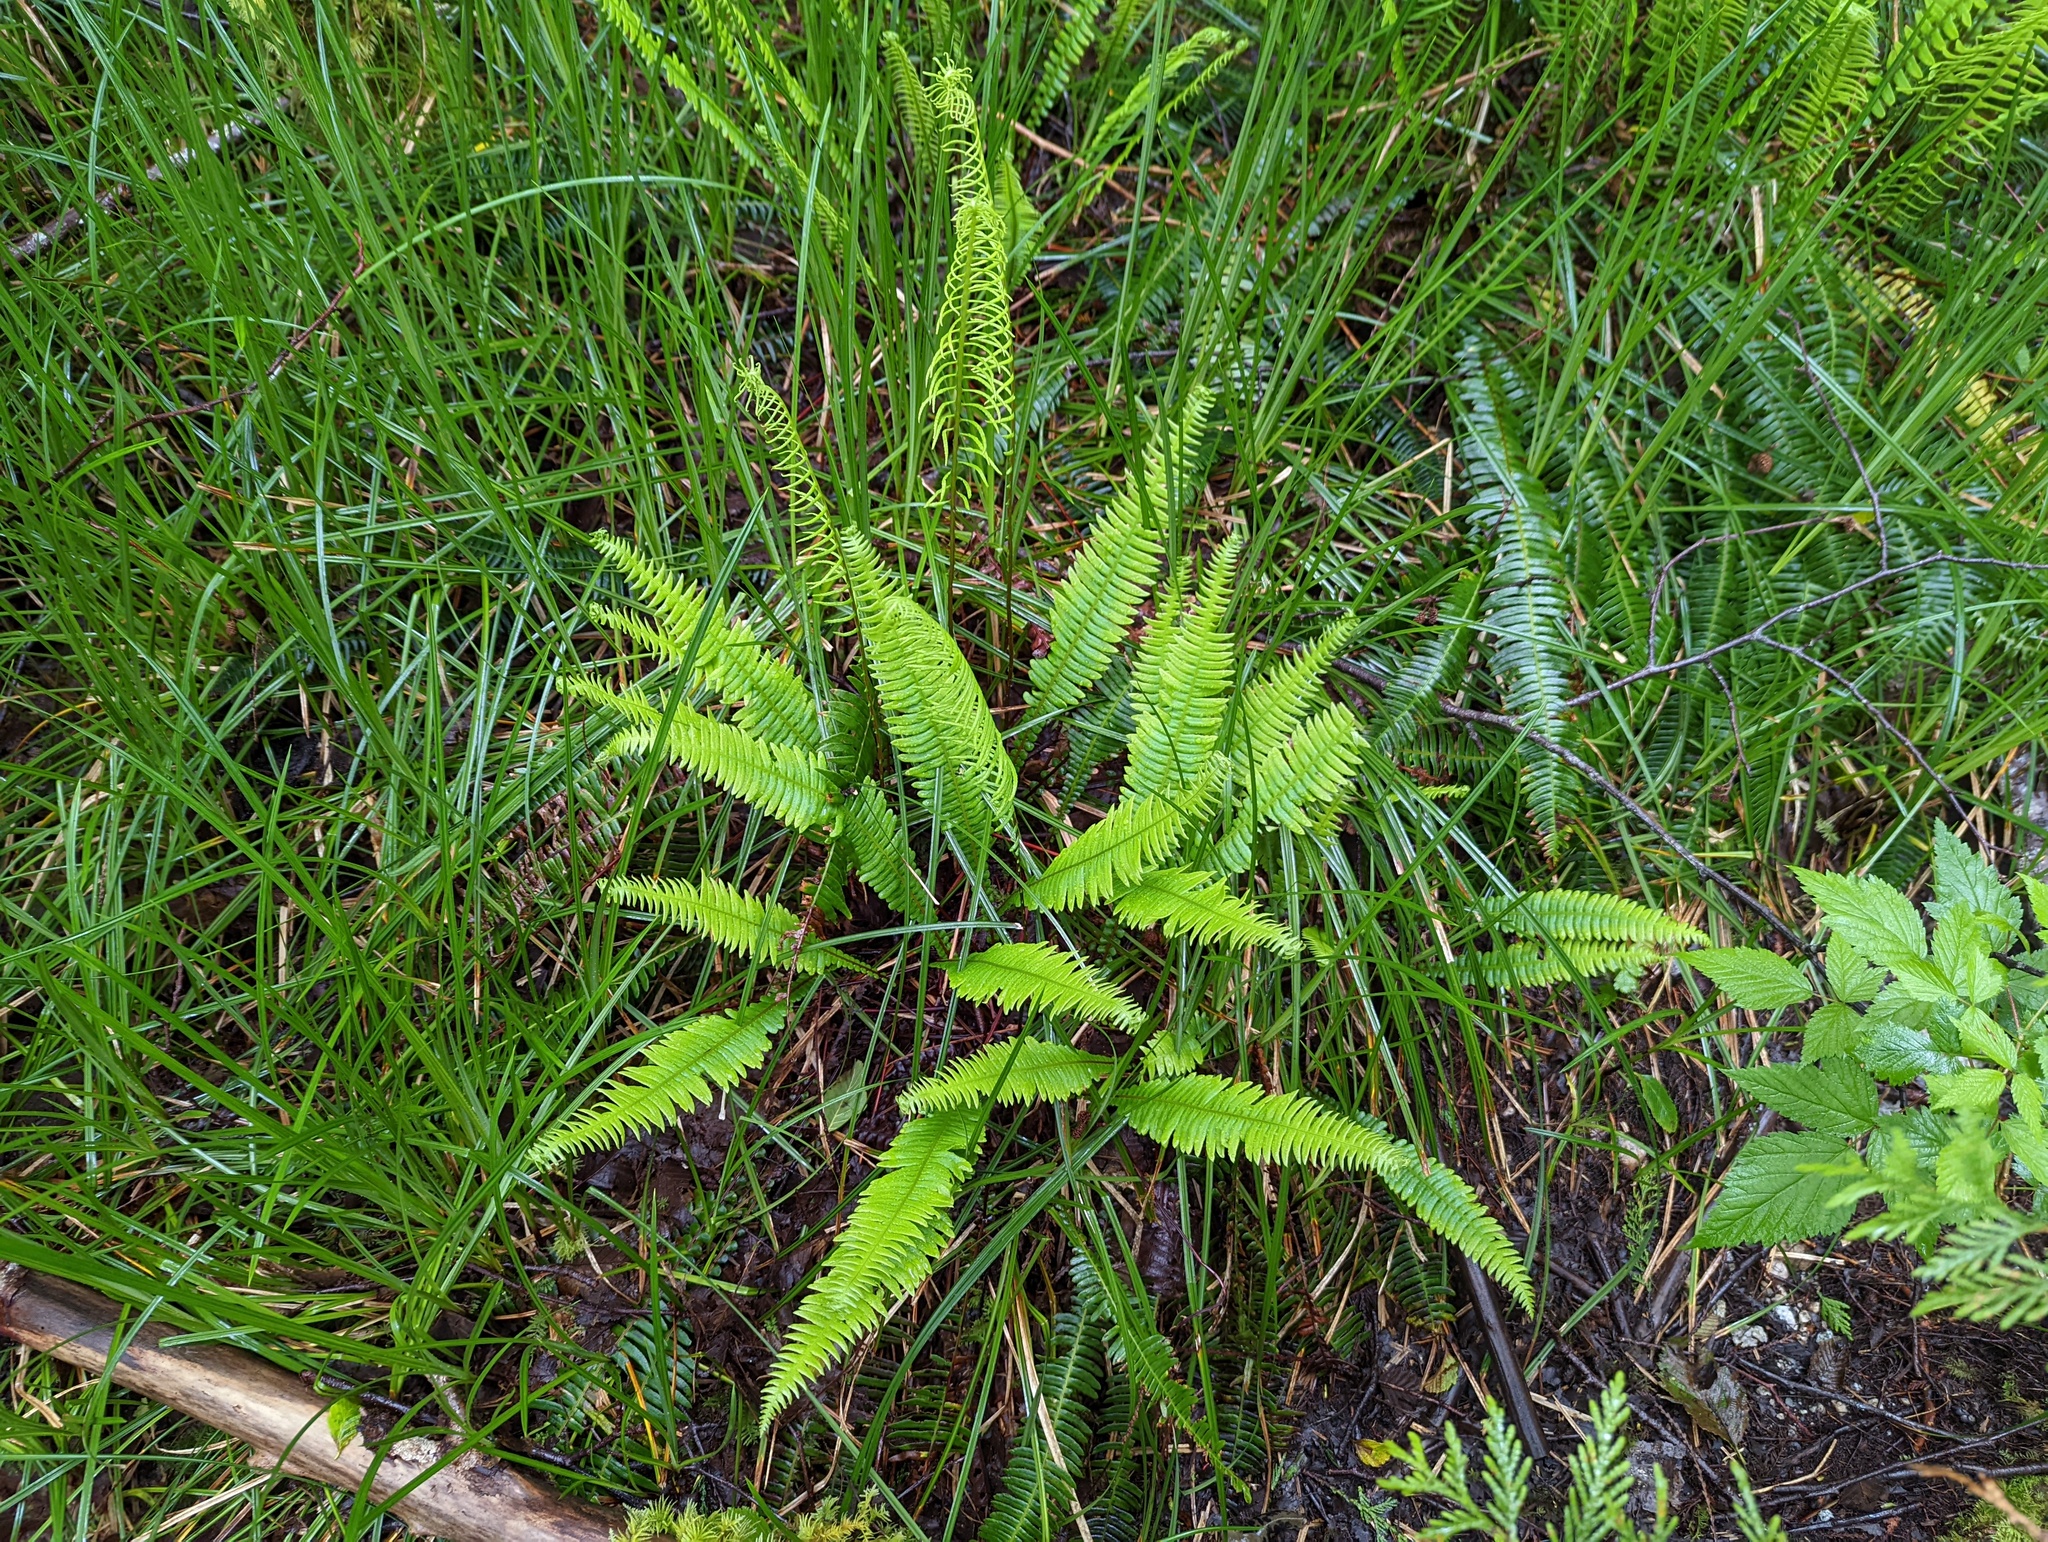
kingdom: Plantae
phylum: Tracheophyta
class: Polypodiopsida
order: Polypodiales
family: Blechnaceae
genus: Struthiopteris
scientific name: Struthiopteris spicant
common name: Deer fern
